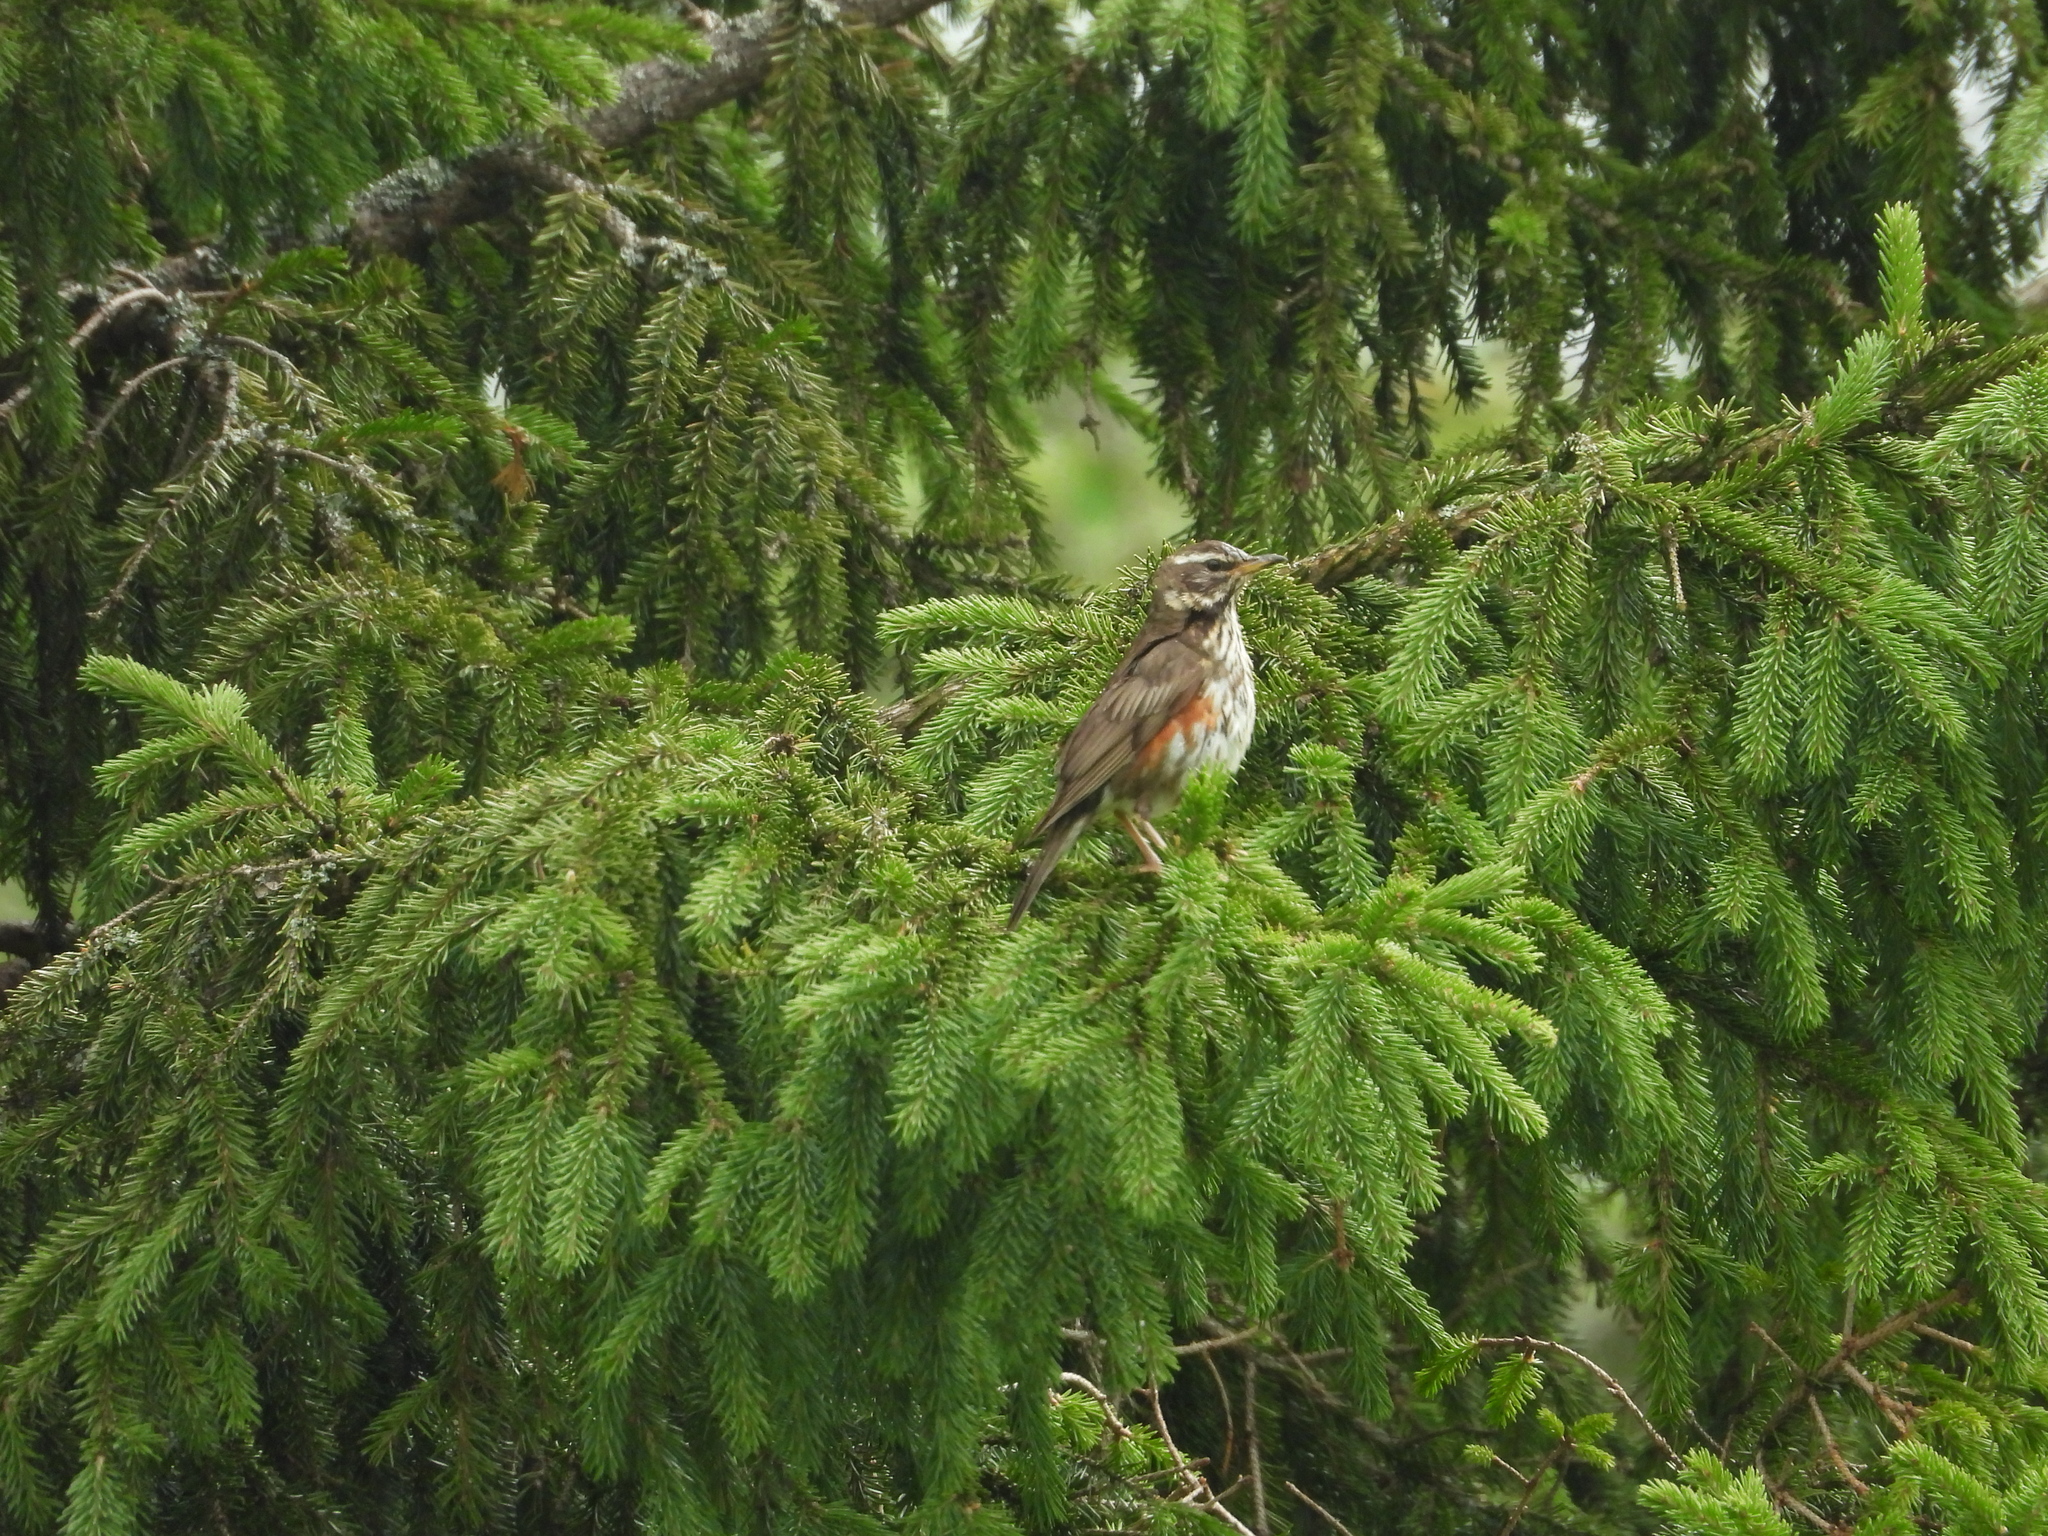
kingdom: Animalia
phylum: Chordata
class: Aves
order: Passeriformes
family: Turdidae
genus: Turdus
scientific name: Turdus iliacus
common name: Redwing
